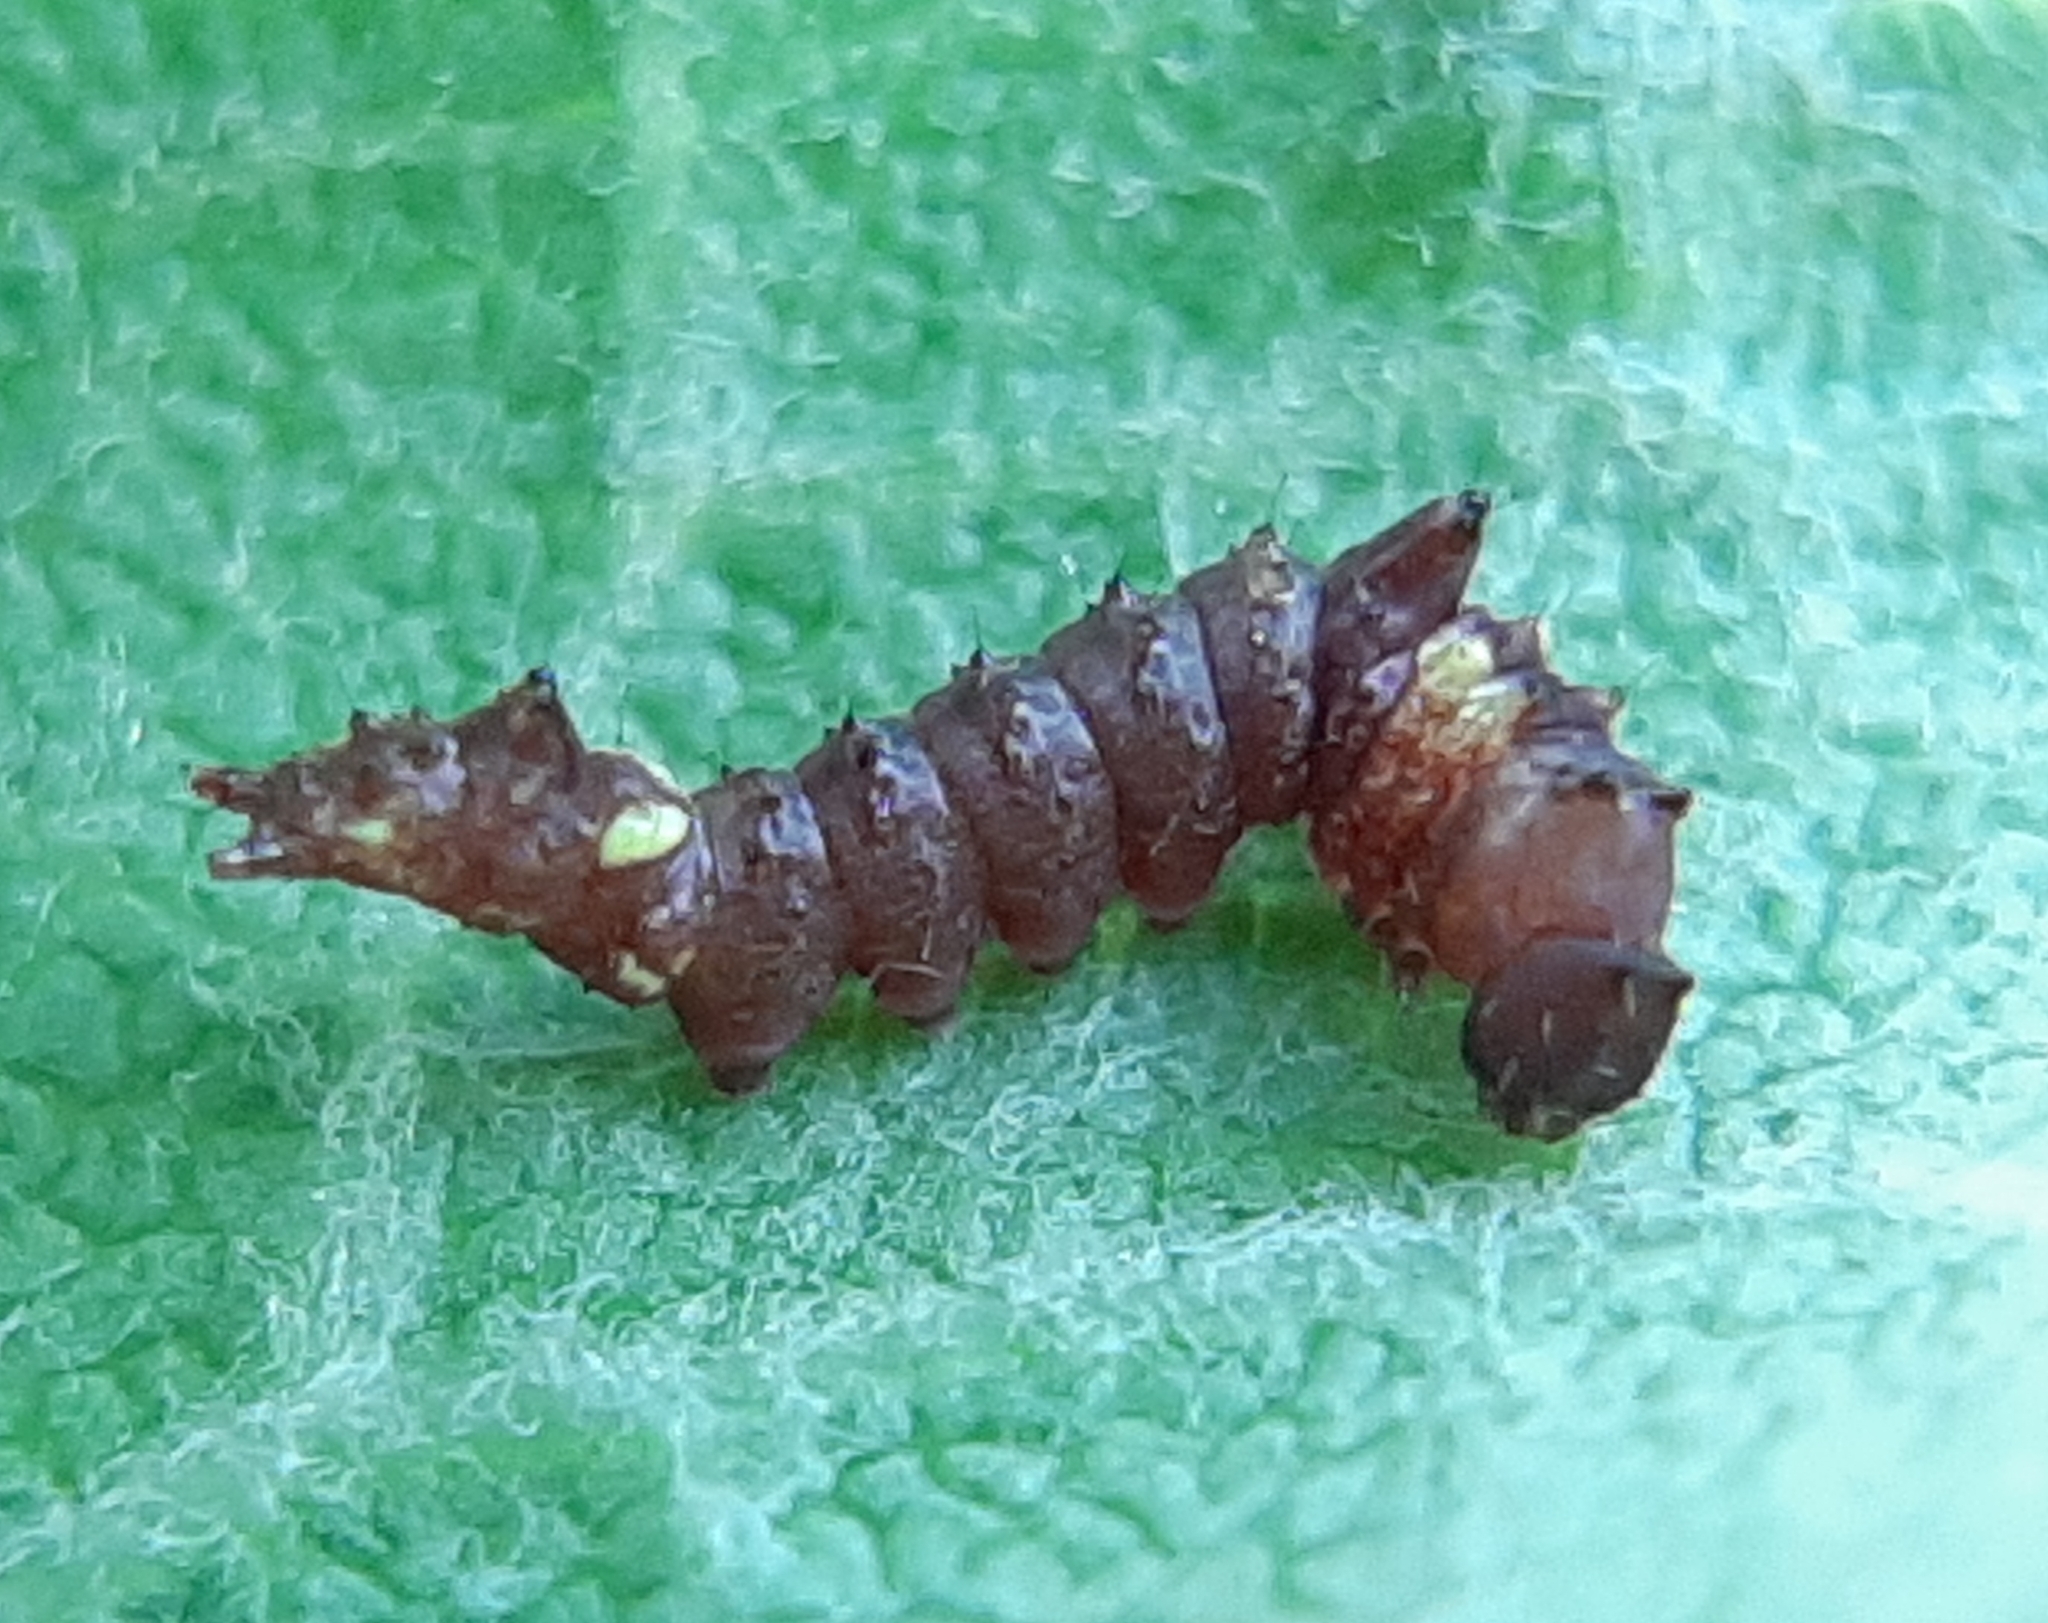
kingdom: Animalia
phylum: Arthropoda
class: Insecta
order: Lepidoptera
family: Notodontidae
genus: Schizura
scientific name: Schizura
